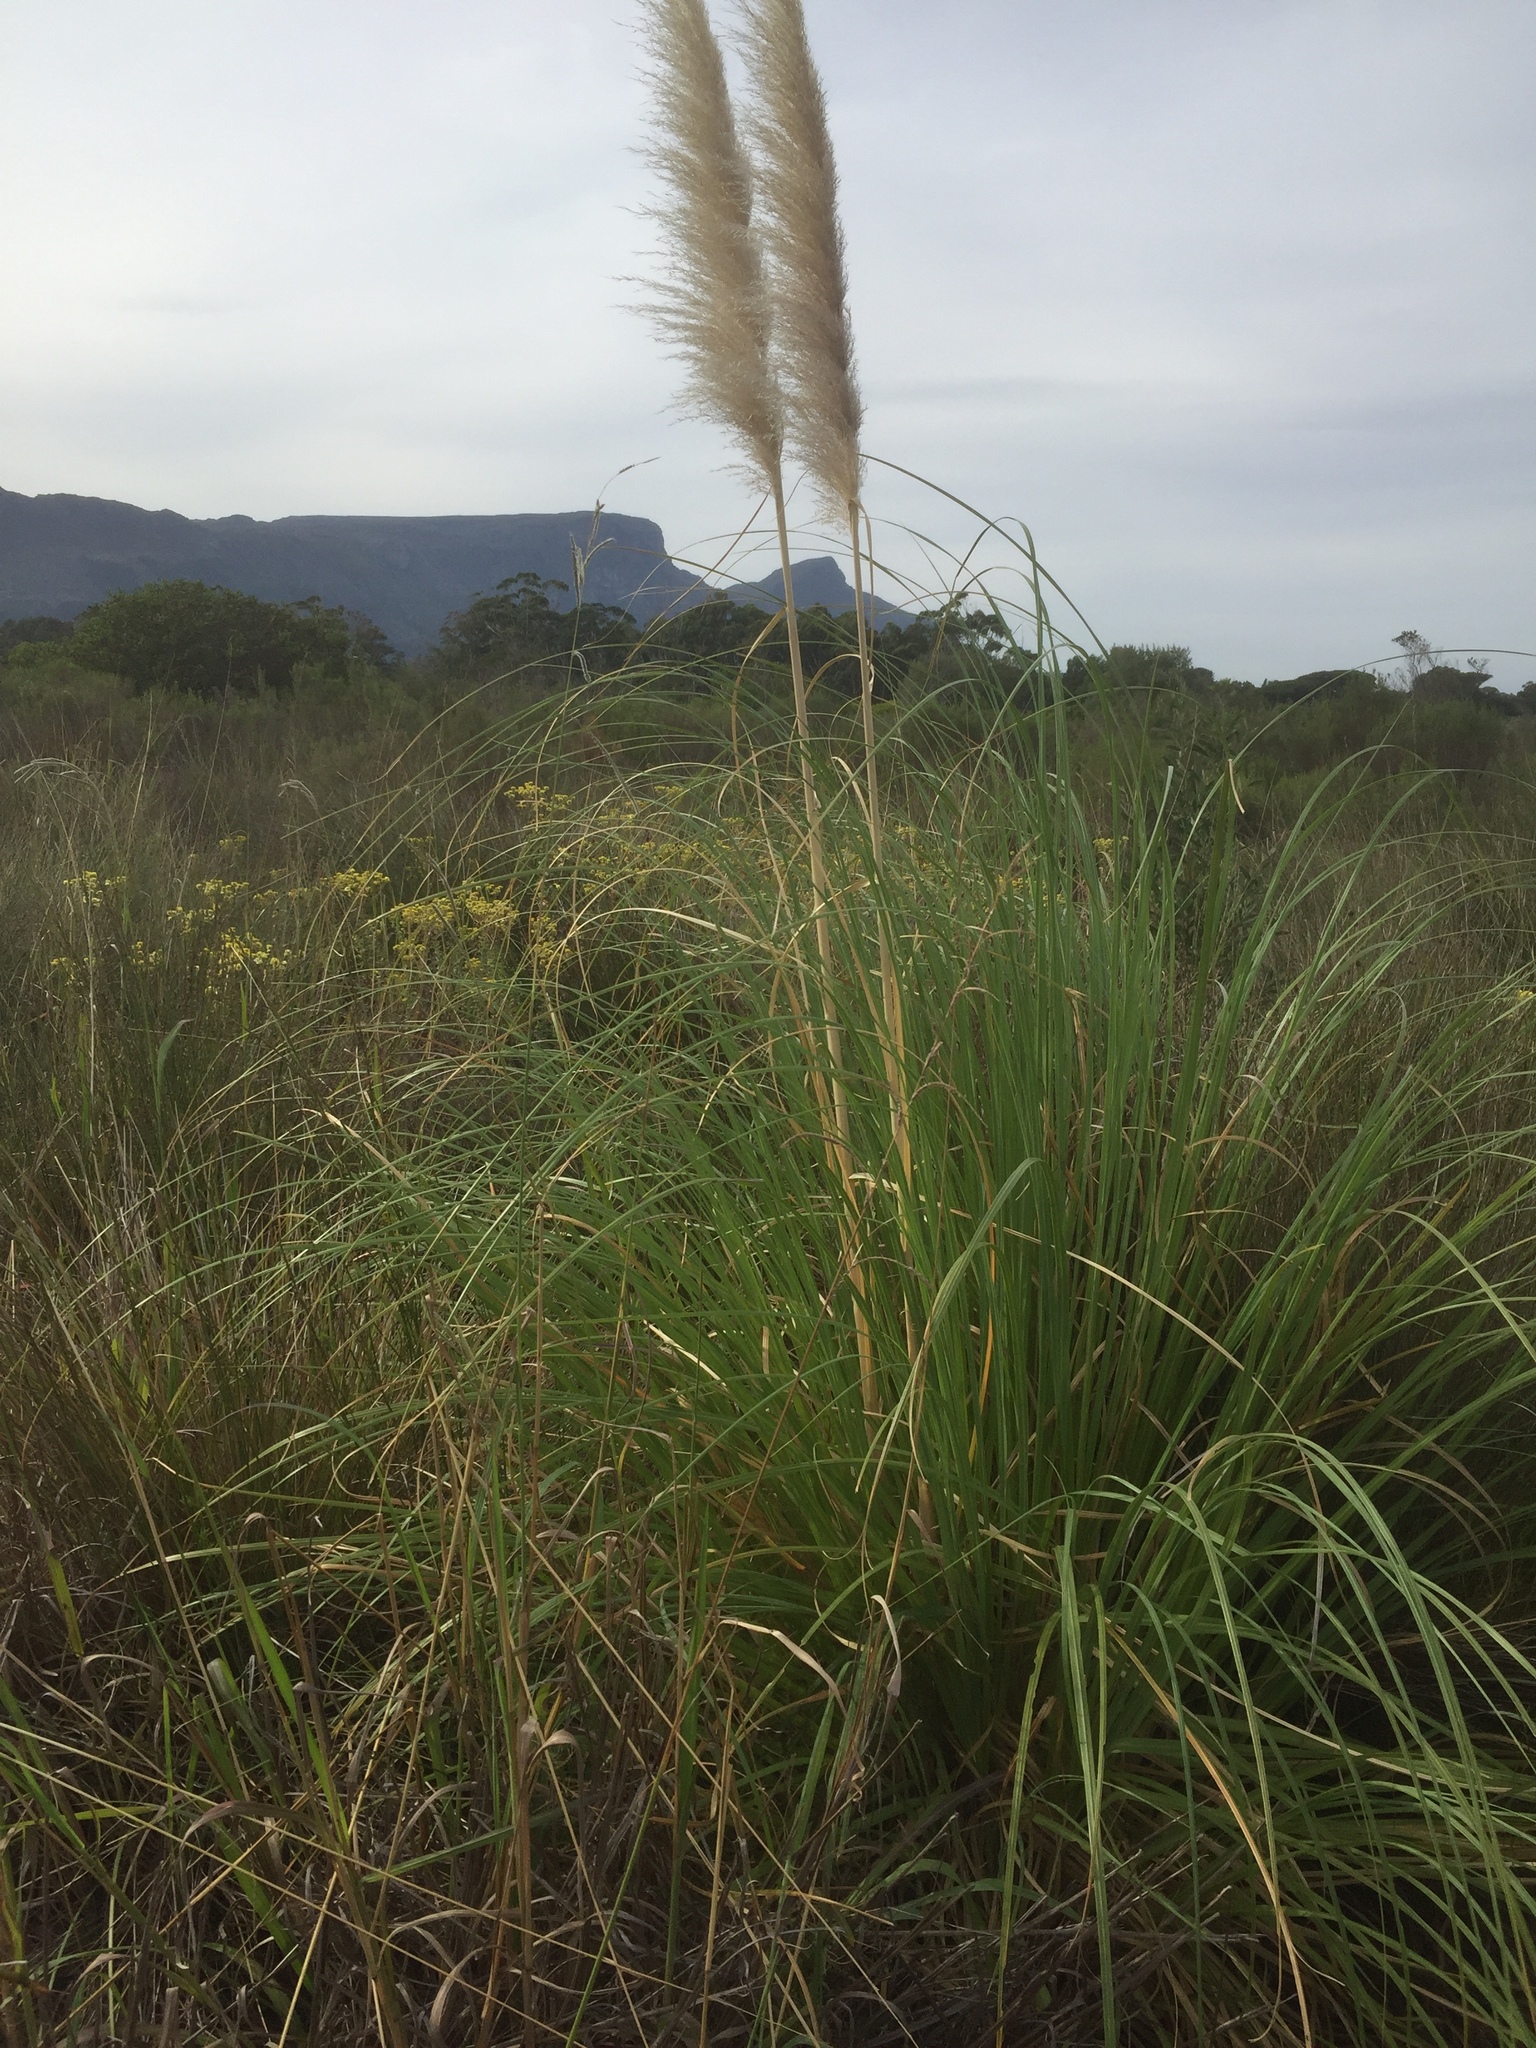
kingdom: Plantae
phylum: Tracheophyta
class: Liliopsida
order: Poales
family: Poaceae
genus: Cortaderia
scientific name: Cortaderia selloana
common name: Uruguayan pampas grass
